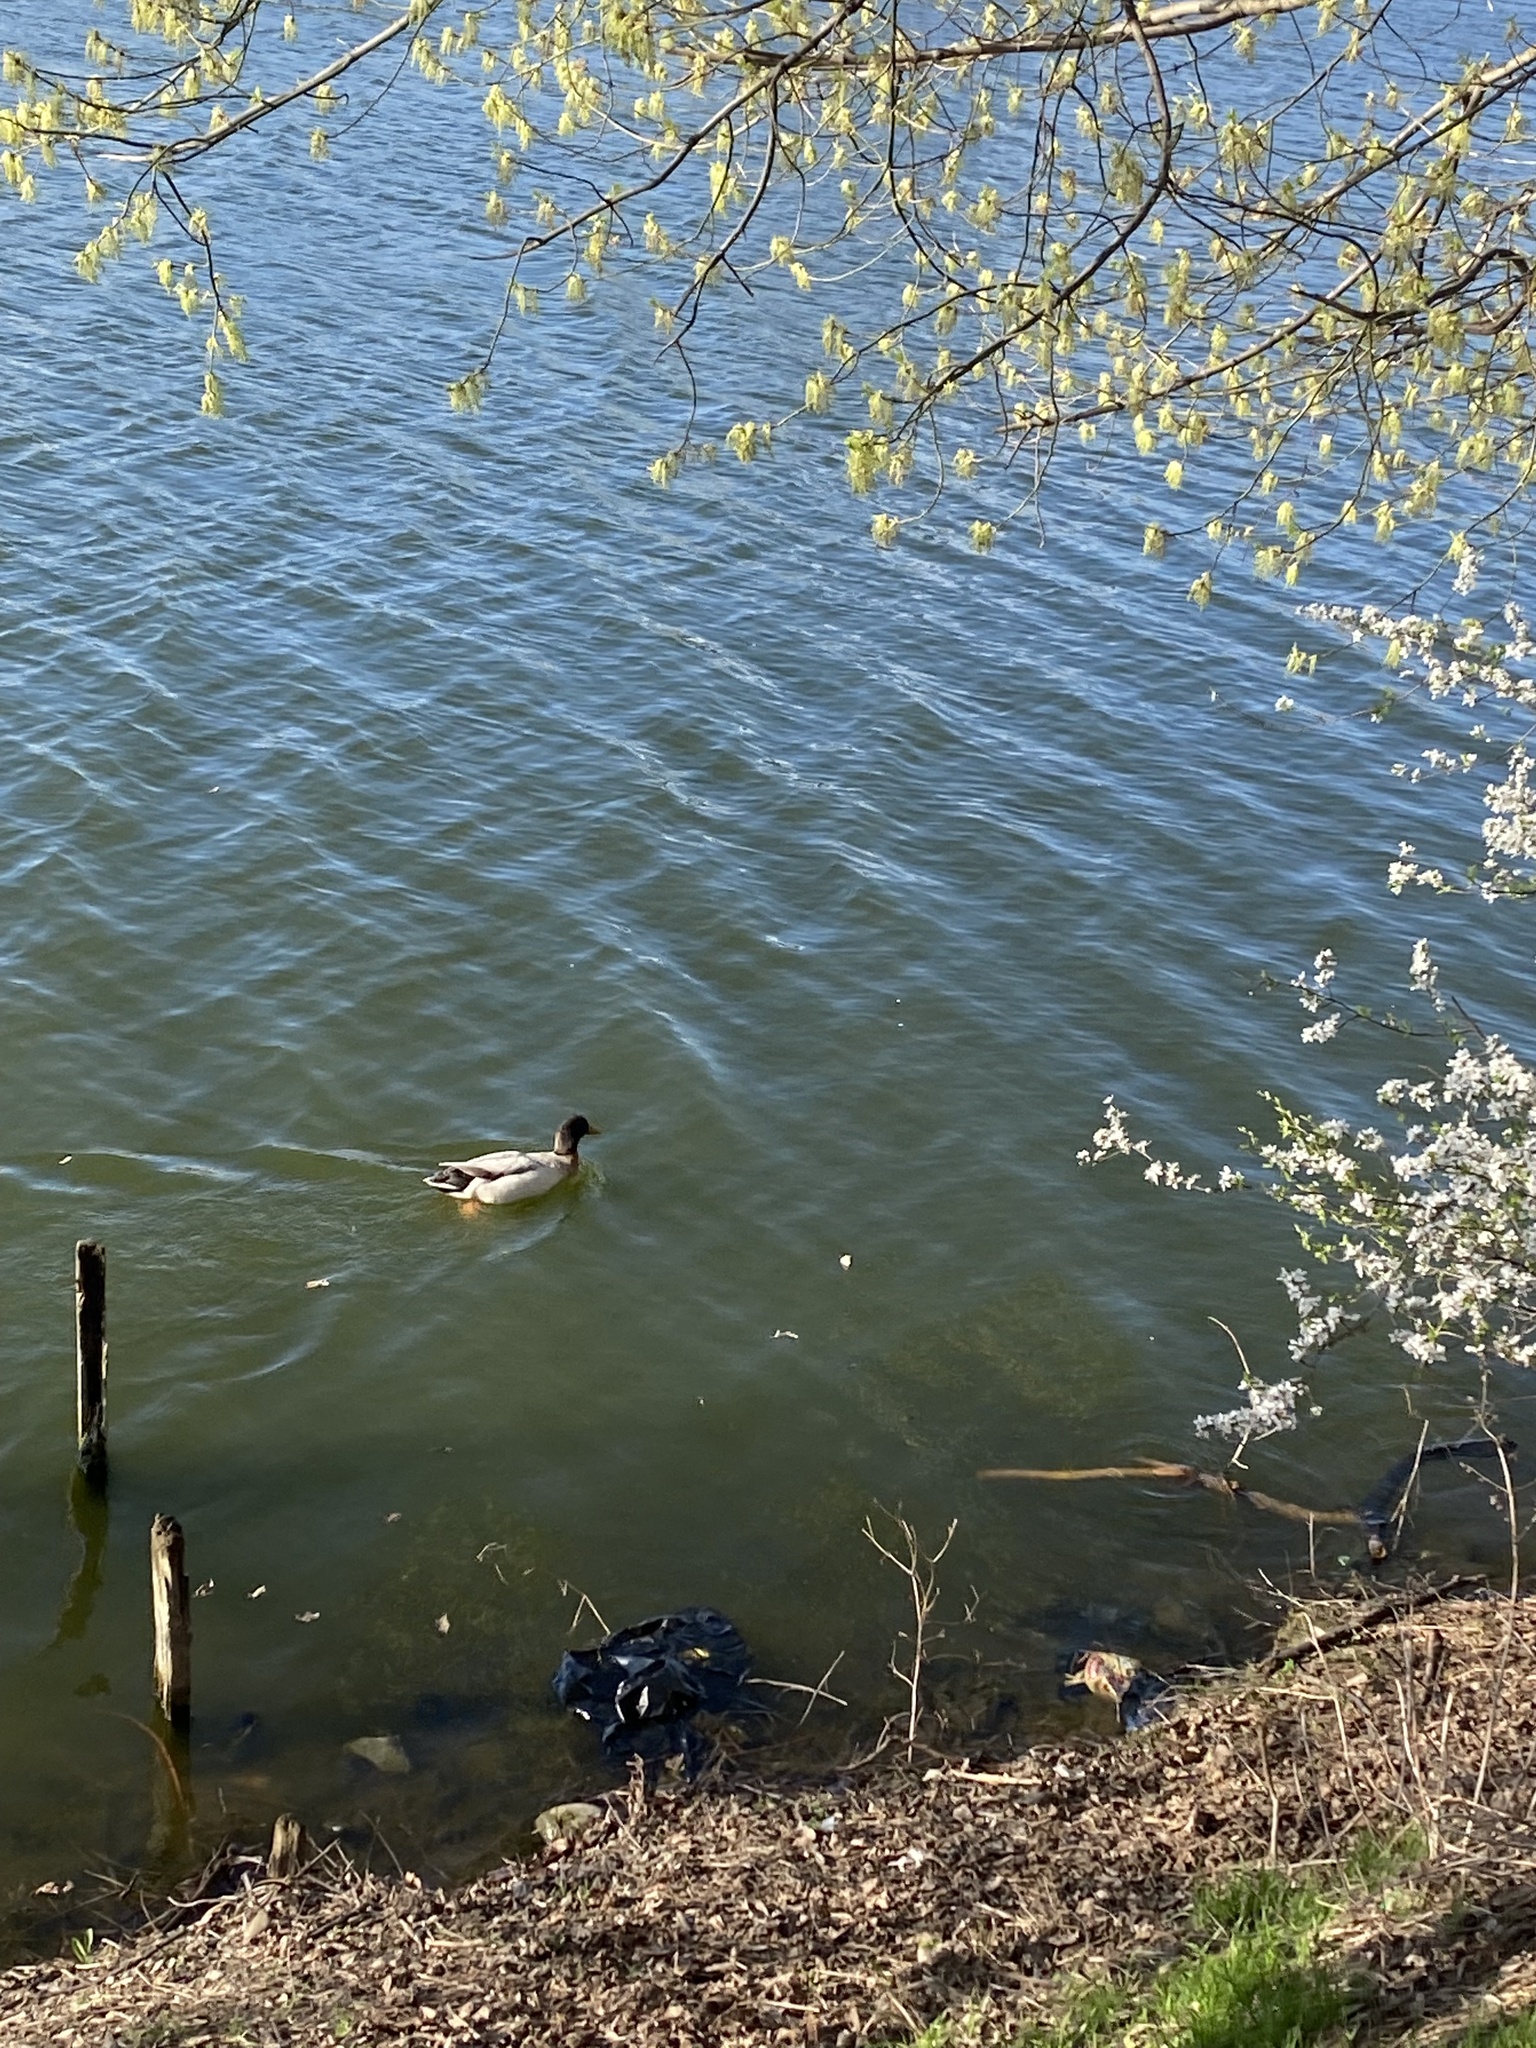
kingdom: Animalia
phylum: Chordata
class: Aves
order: Anseriformes
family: Anatidae
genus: Anas
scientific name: Anas platyrhynchos
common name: Mallard
